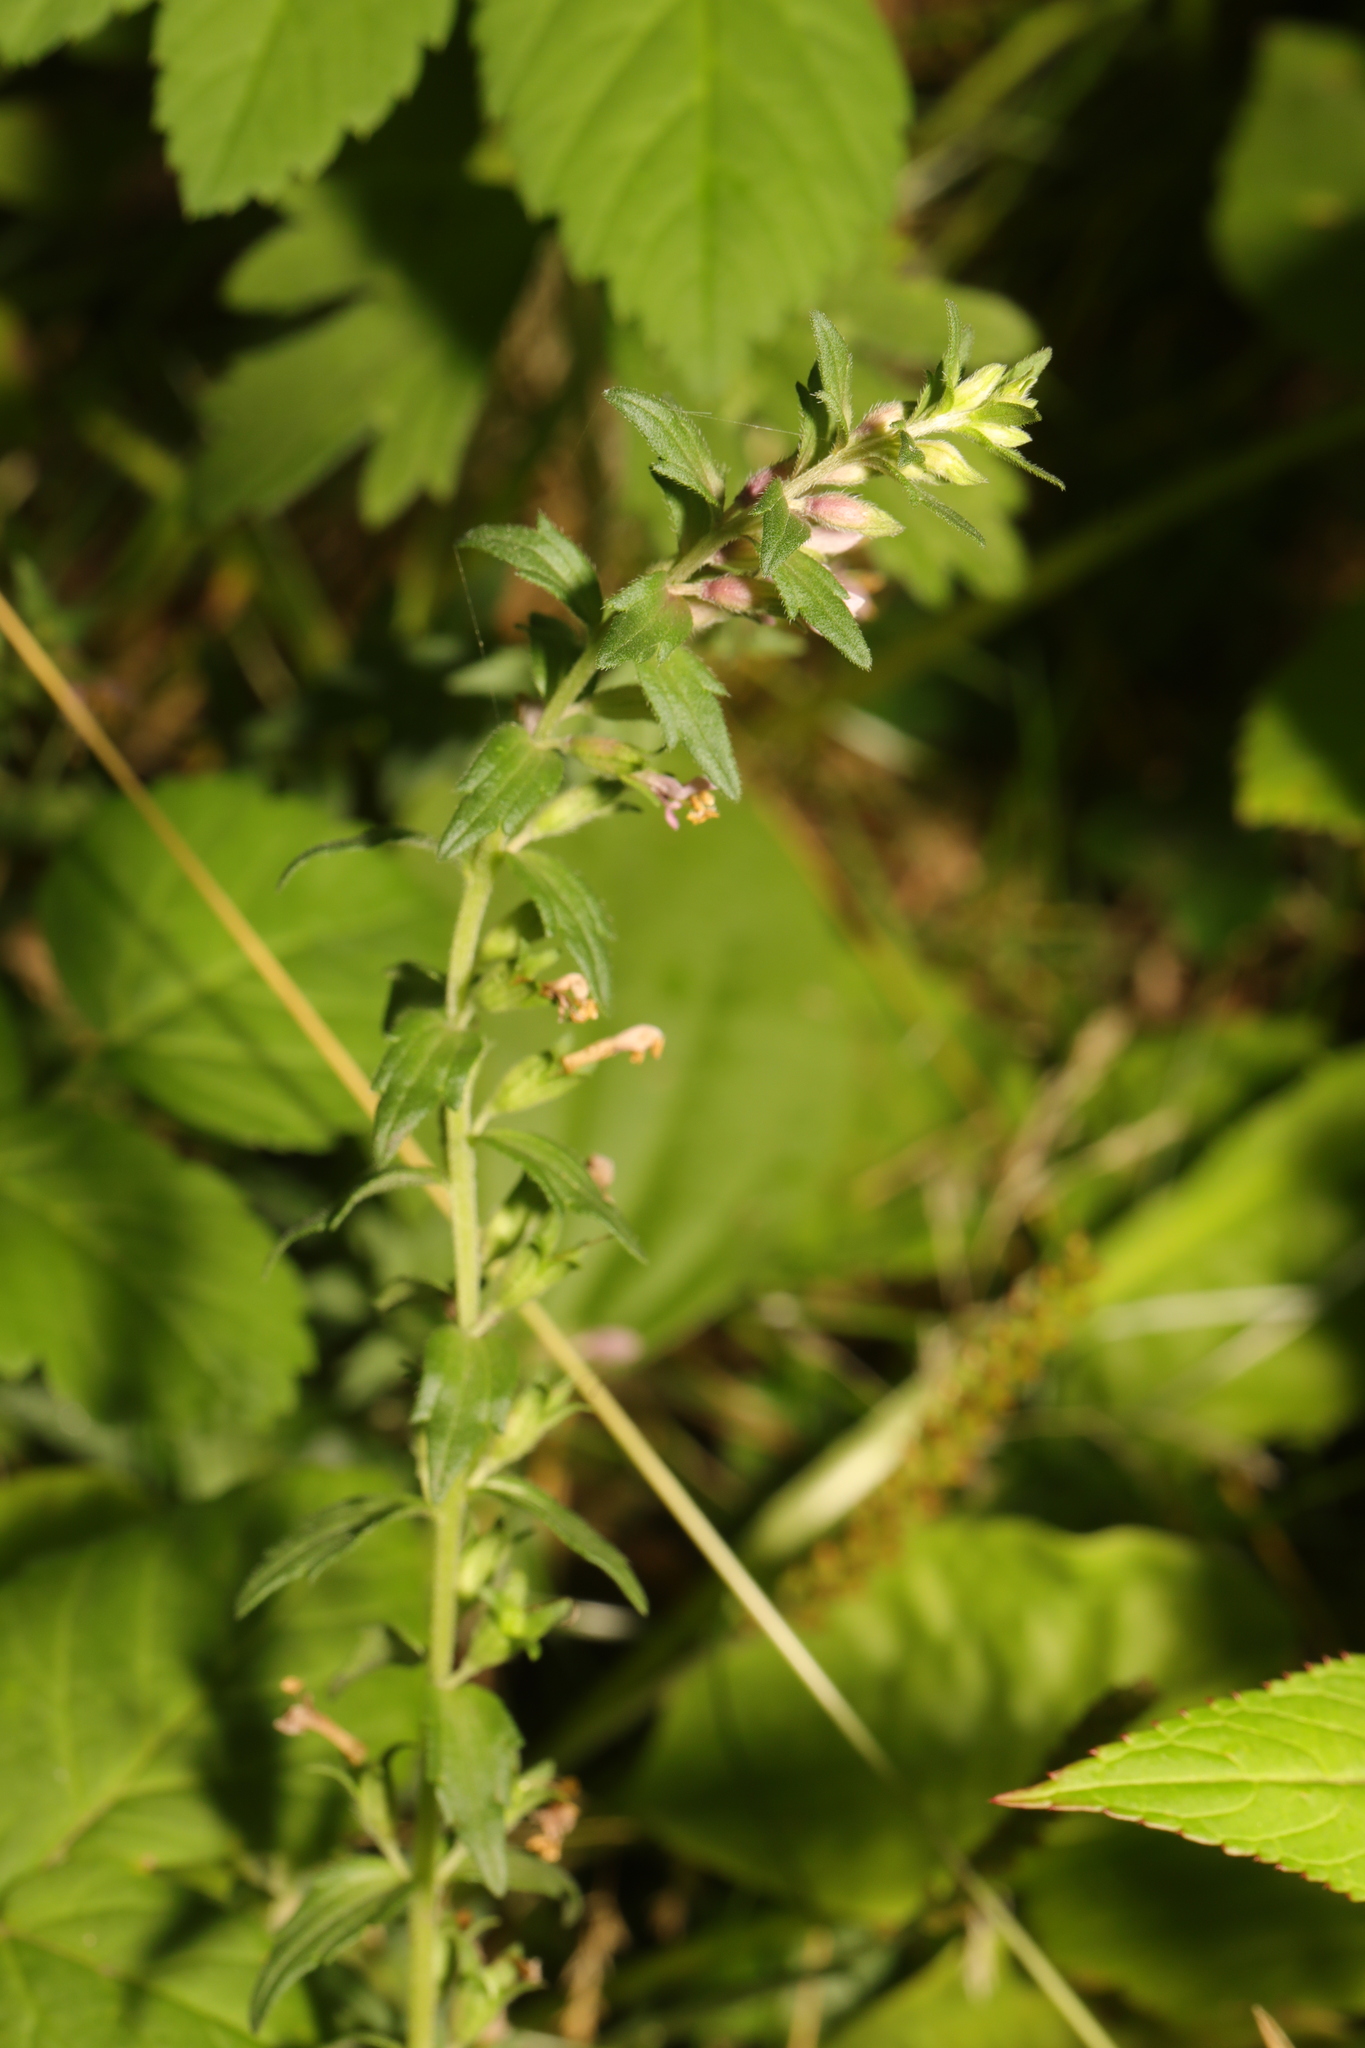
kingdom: Plantae
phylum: Tracheophyta
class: Magnoliopsida
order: Lamiales
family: Orobanchaceae
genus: Odontites
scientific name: Odontites vernus
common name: Red bartsia
